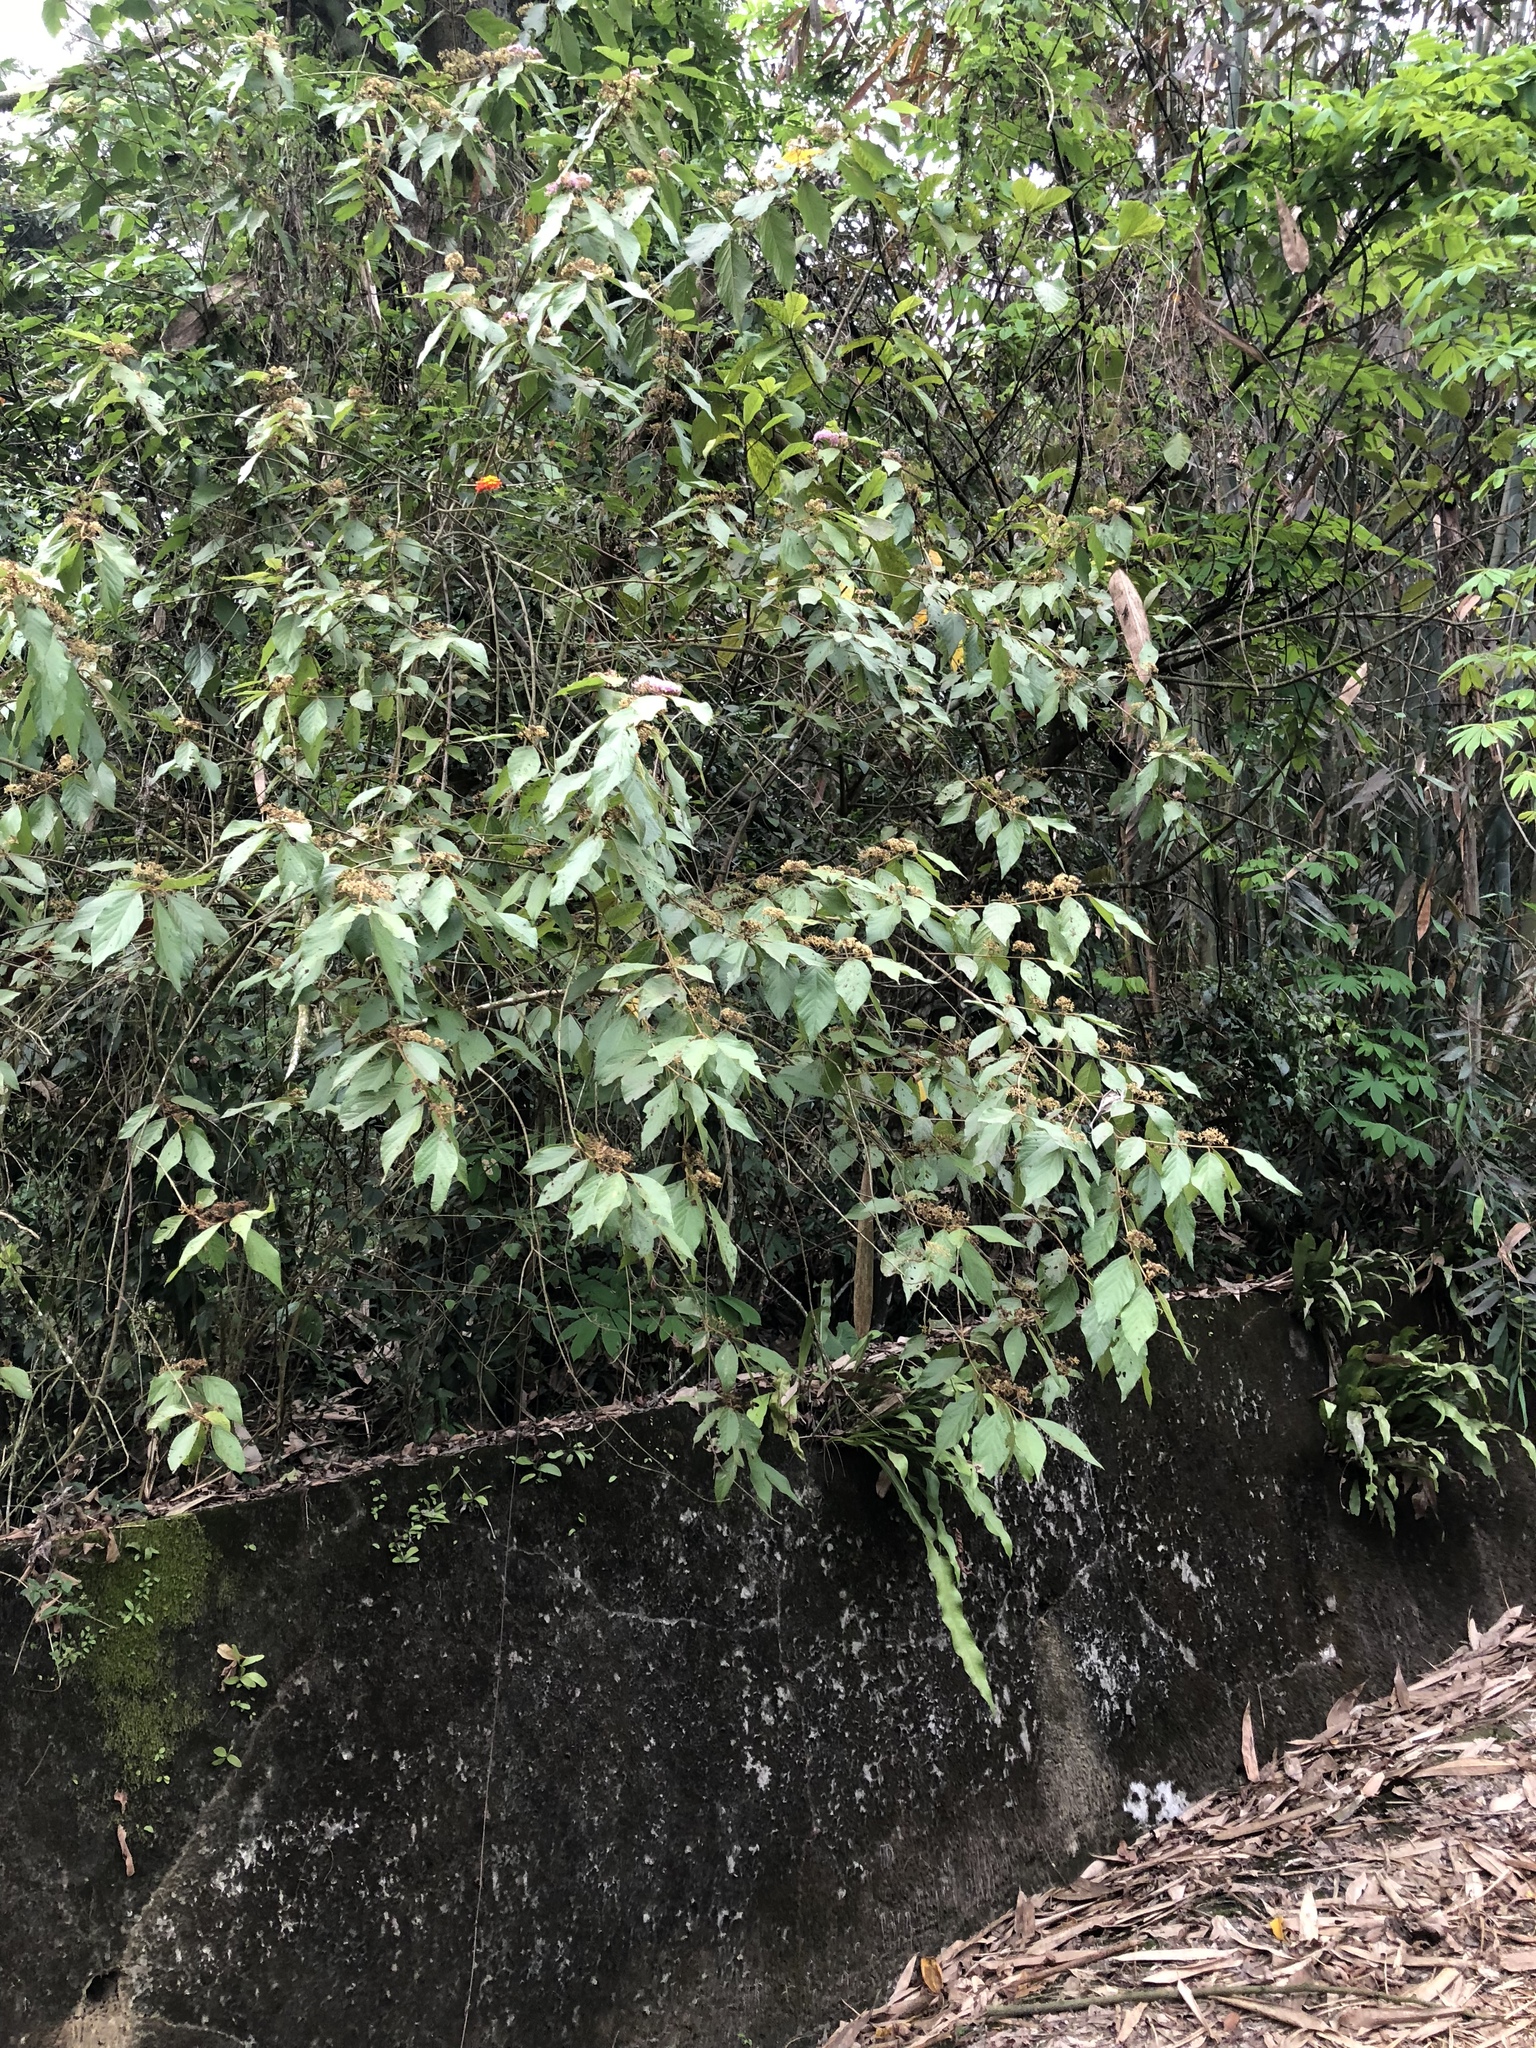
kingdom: Plantae
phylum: Tracheophyta
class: Magnoliopsida
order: Lamiales
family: Lamiaceae
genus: Callicarpa
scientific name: Callicarpa pedunculata
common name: Velvetleaf
